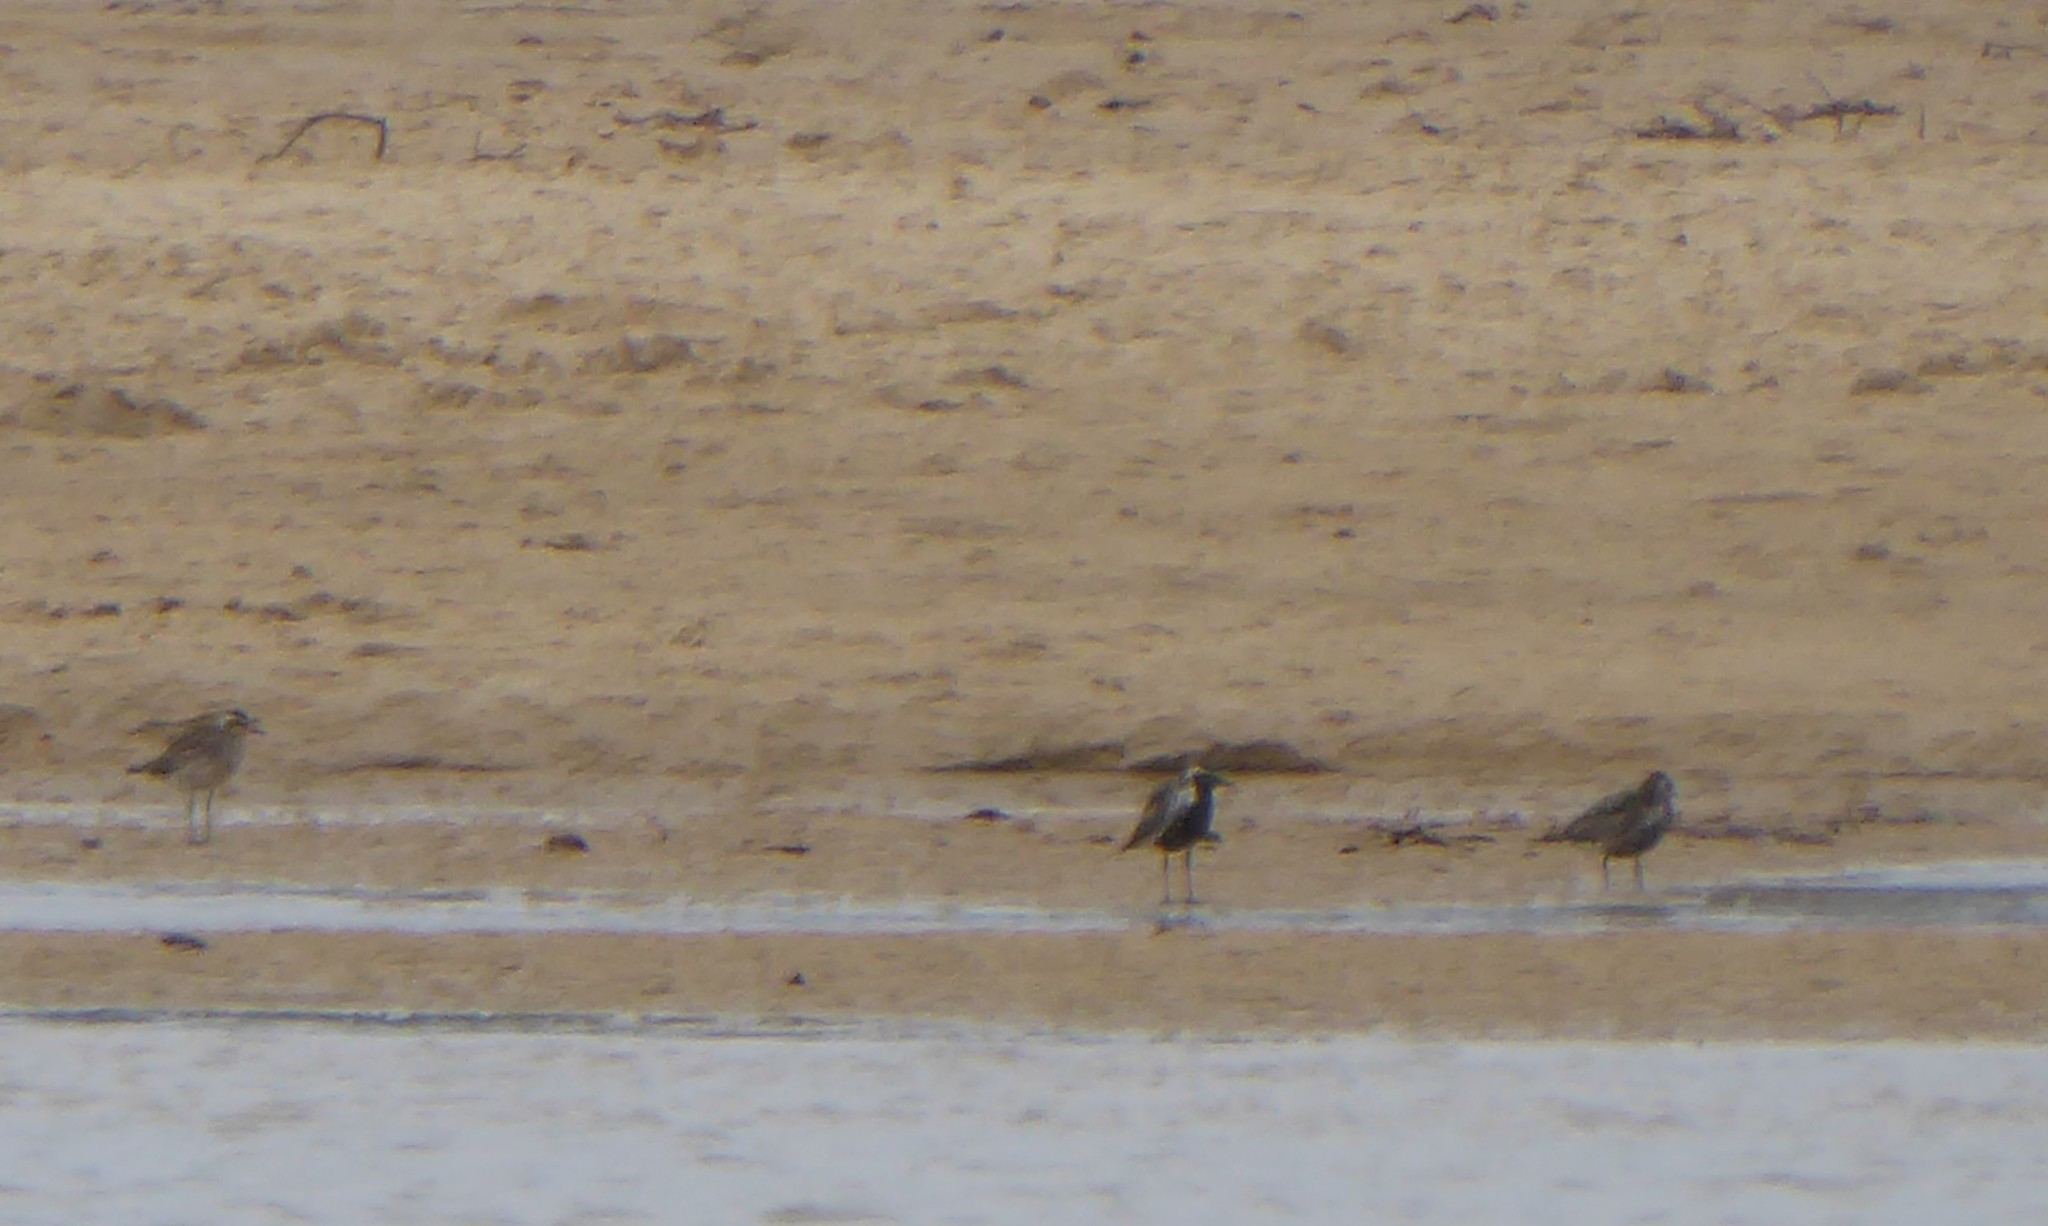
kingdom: Animalia
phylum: Chordata
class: Aves
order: Charadriiformes
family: Charadriidae
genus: Pluvialis
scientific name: Pluvialis fulva
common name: Pacific golden plover
